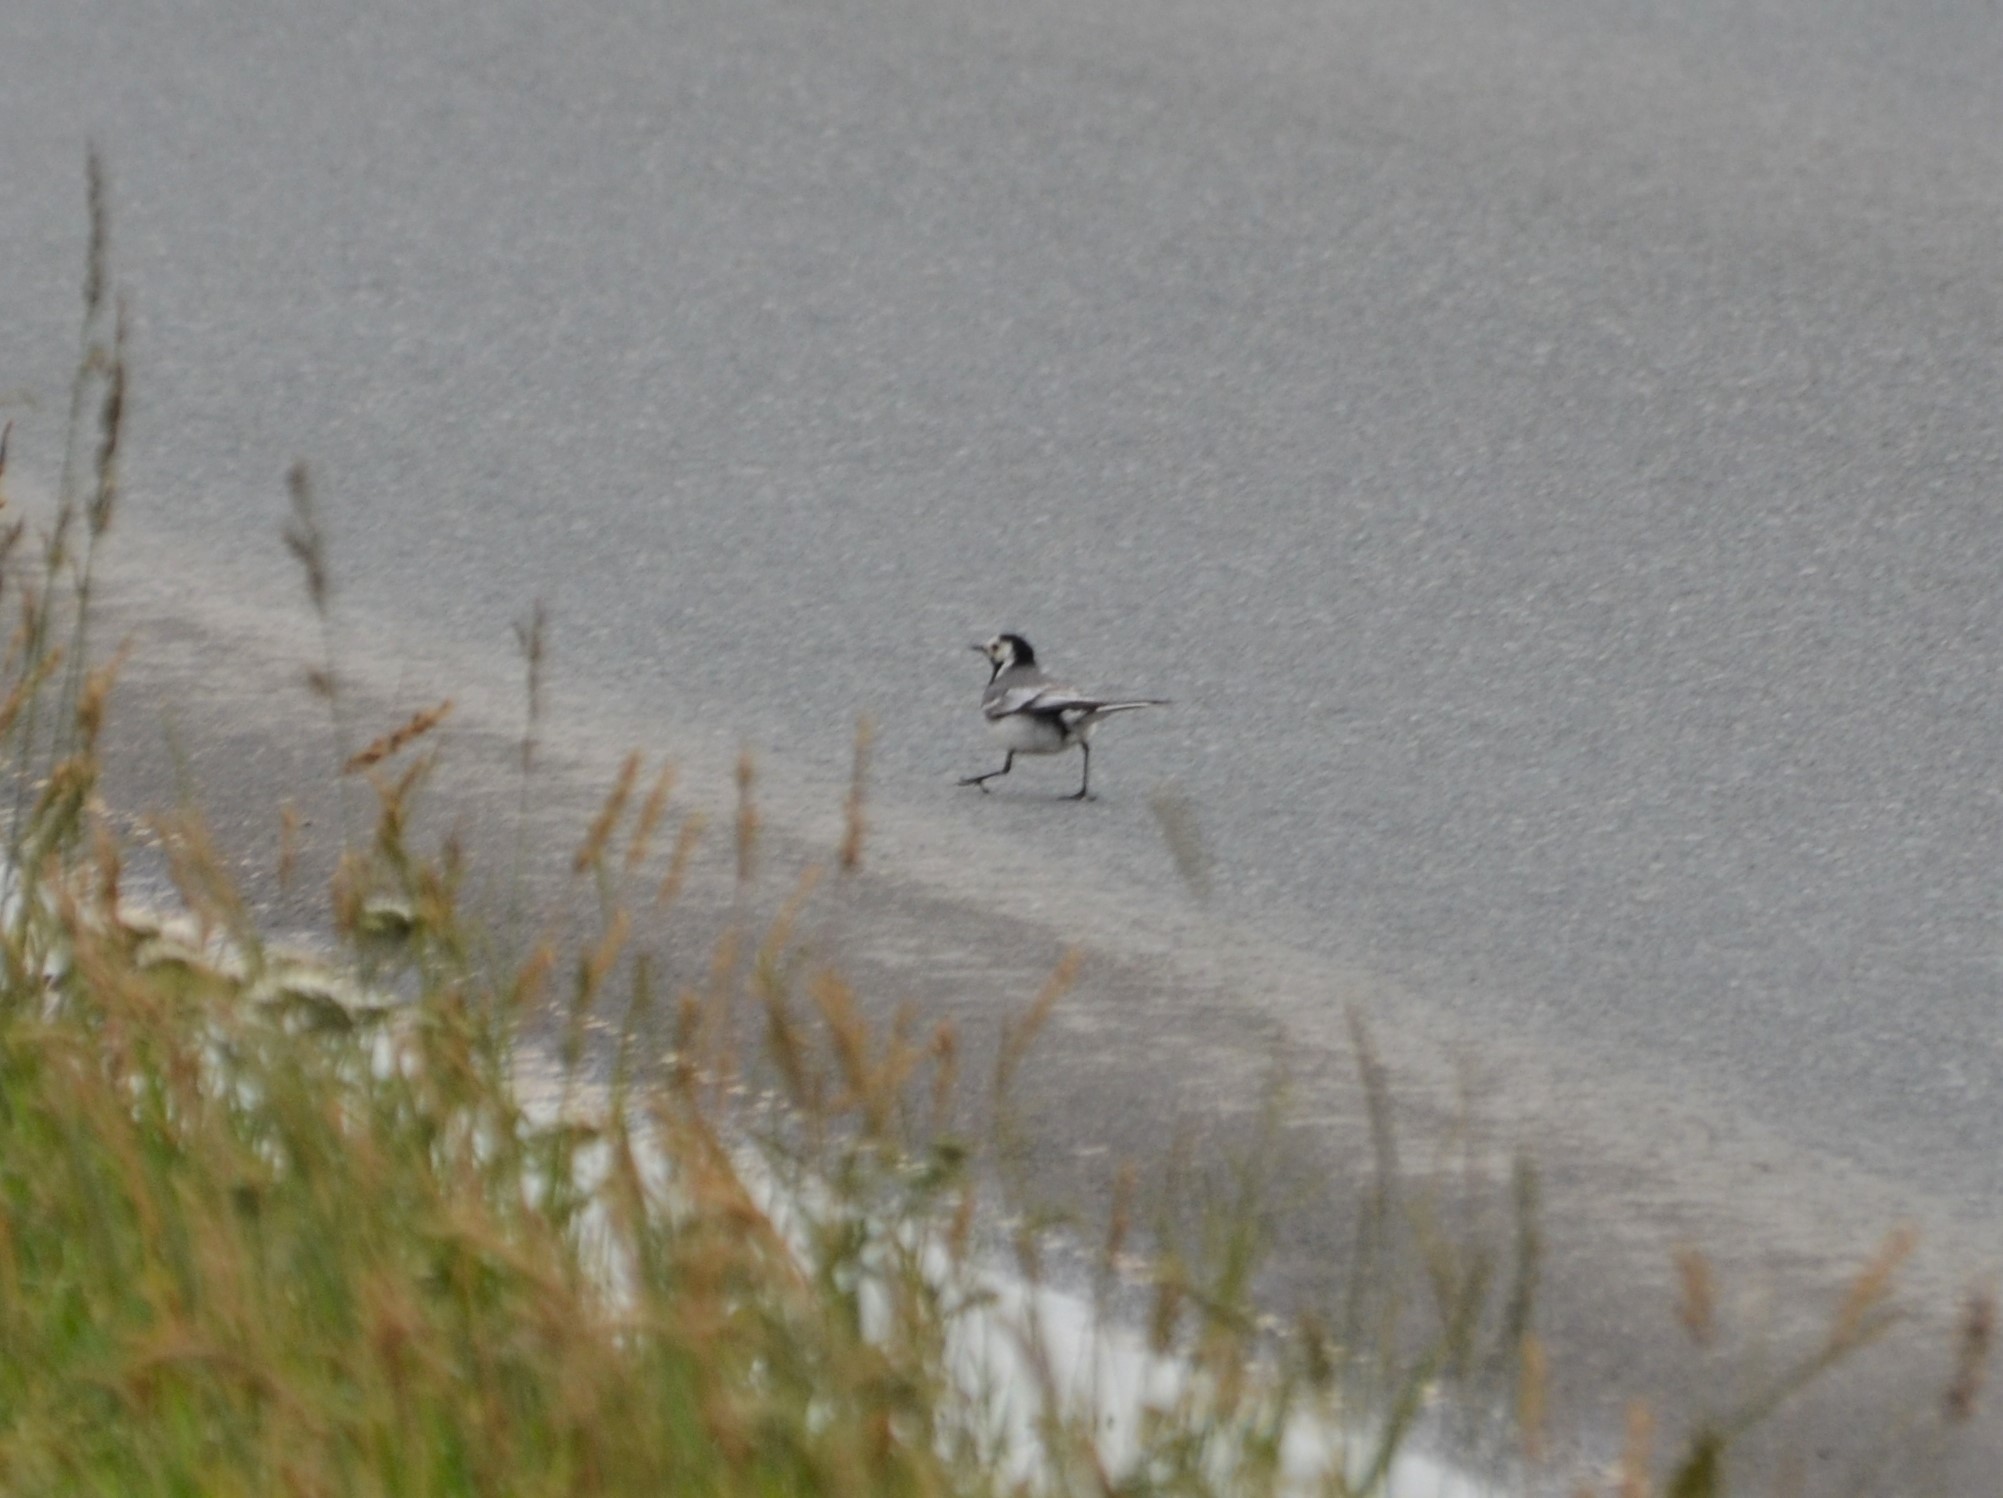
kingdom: Animalia
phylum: Chordata
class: Aves
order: Passeriformes
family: Motacillidae
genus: Motacilla
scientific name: Motacilla alba
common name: White wagtail
